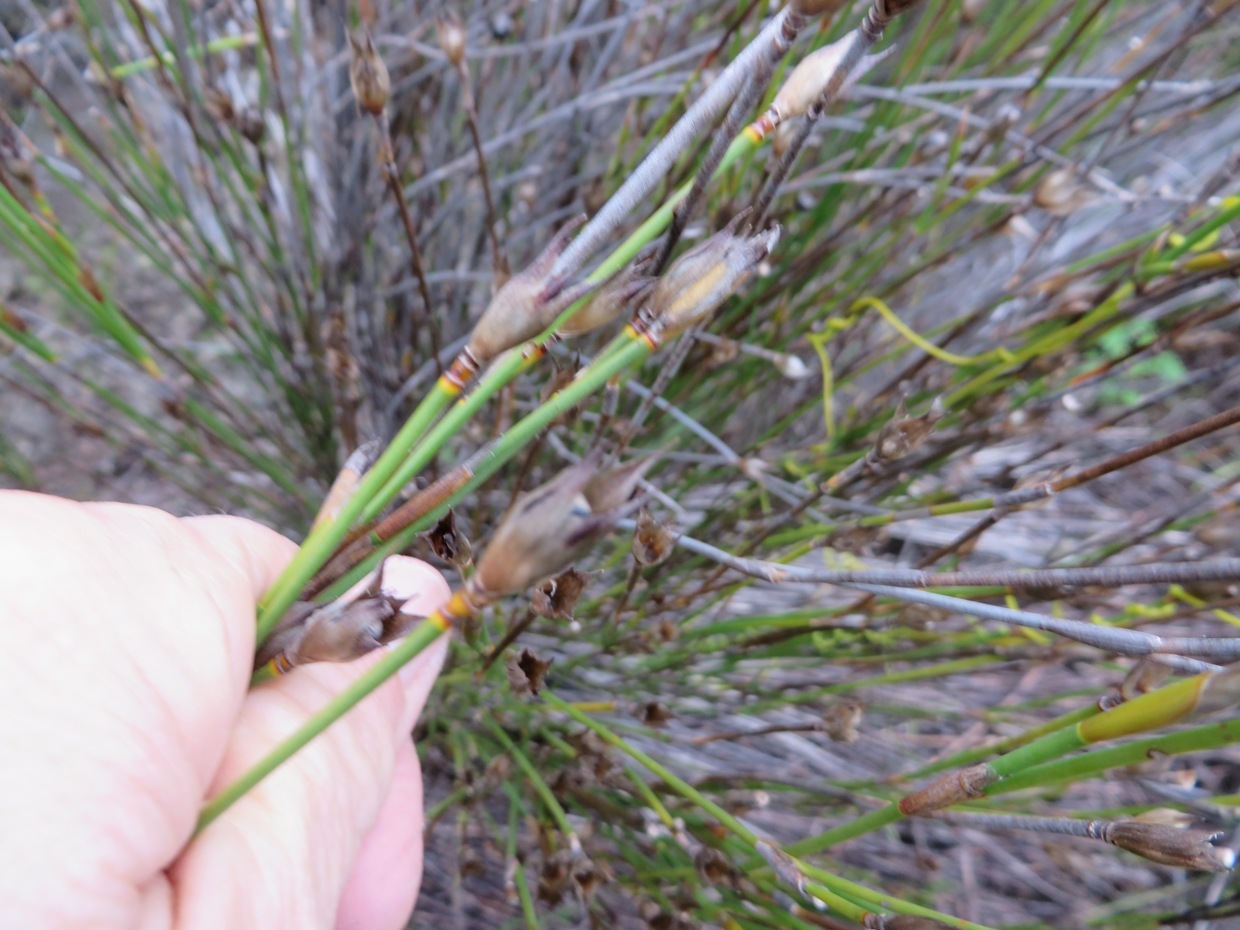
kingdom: Plantae
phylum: Tracheophyta
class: Liliopsida
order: Poales
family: Restionaceae
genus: Willdenowia
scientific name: Willdenowia teres
